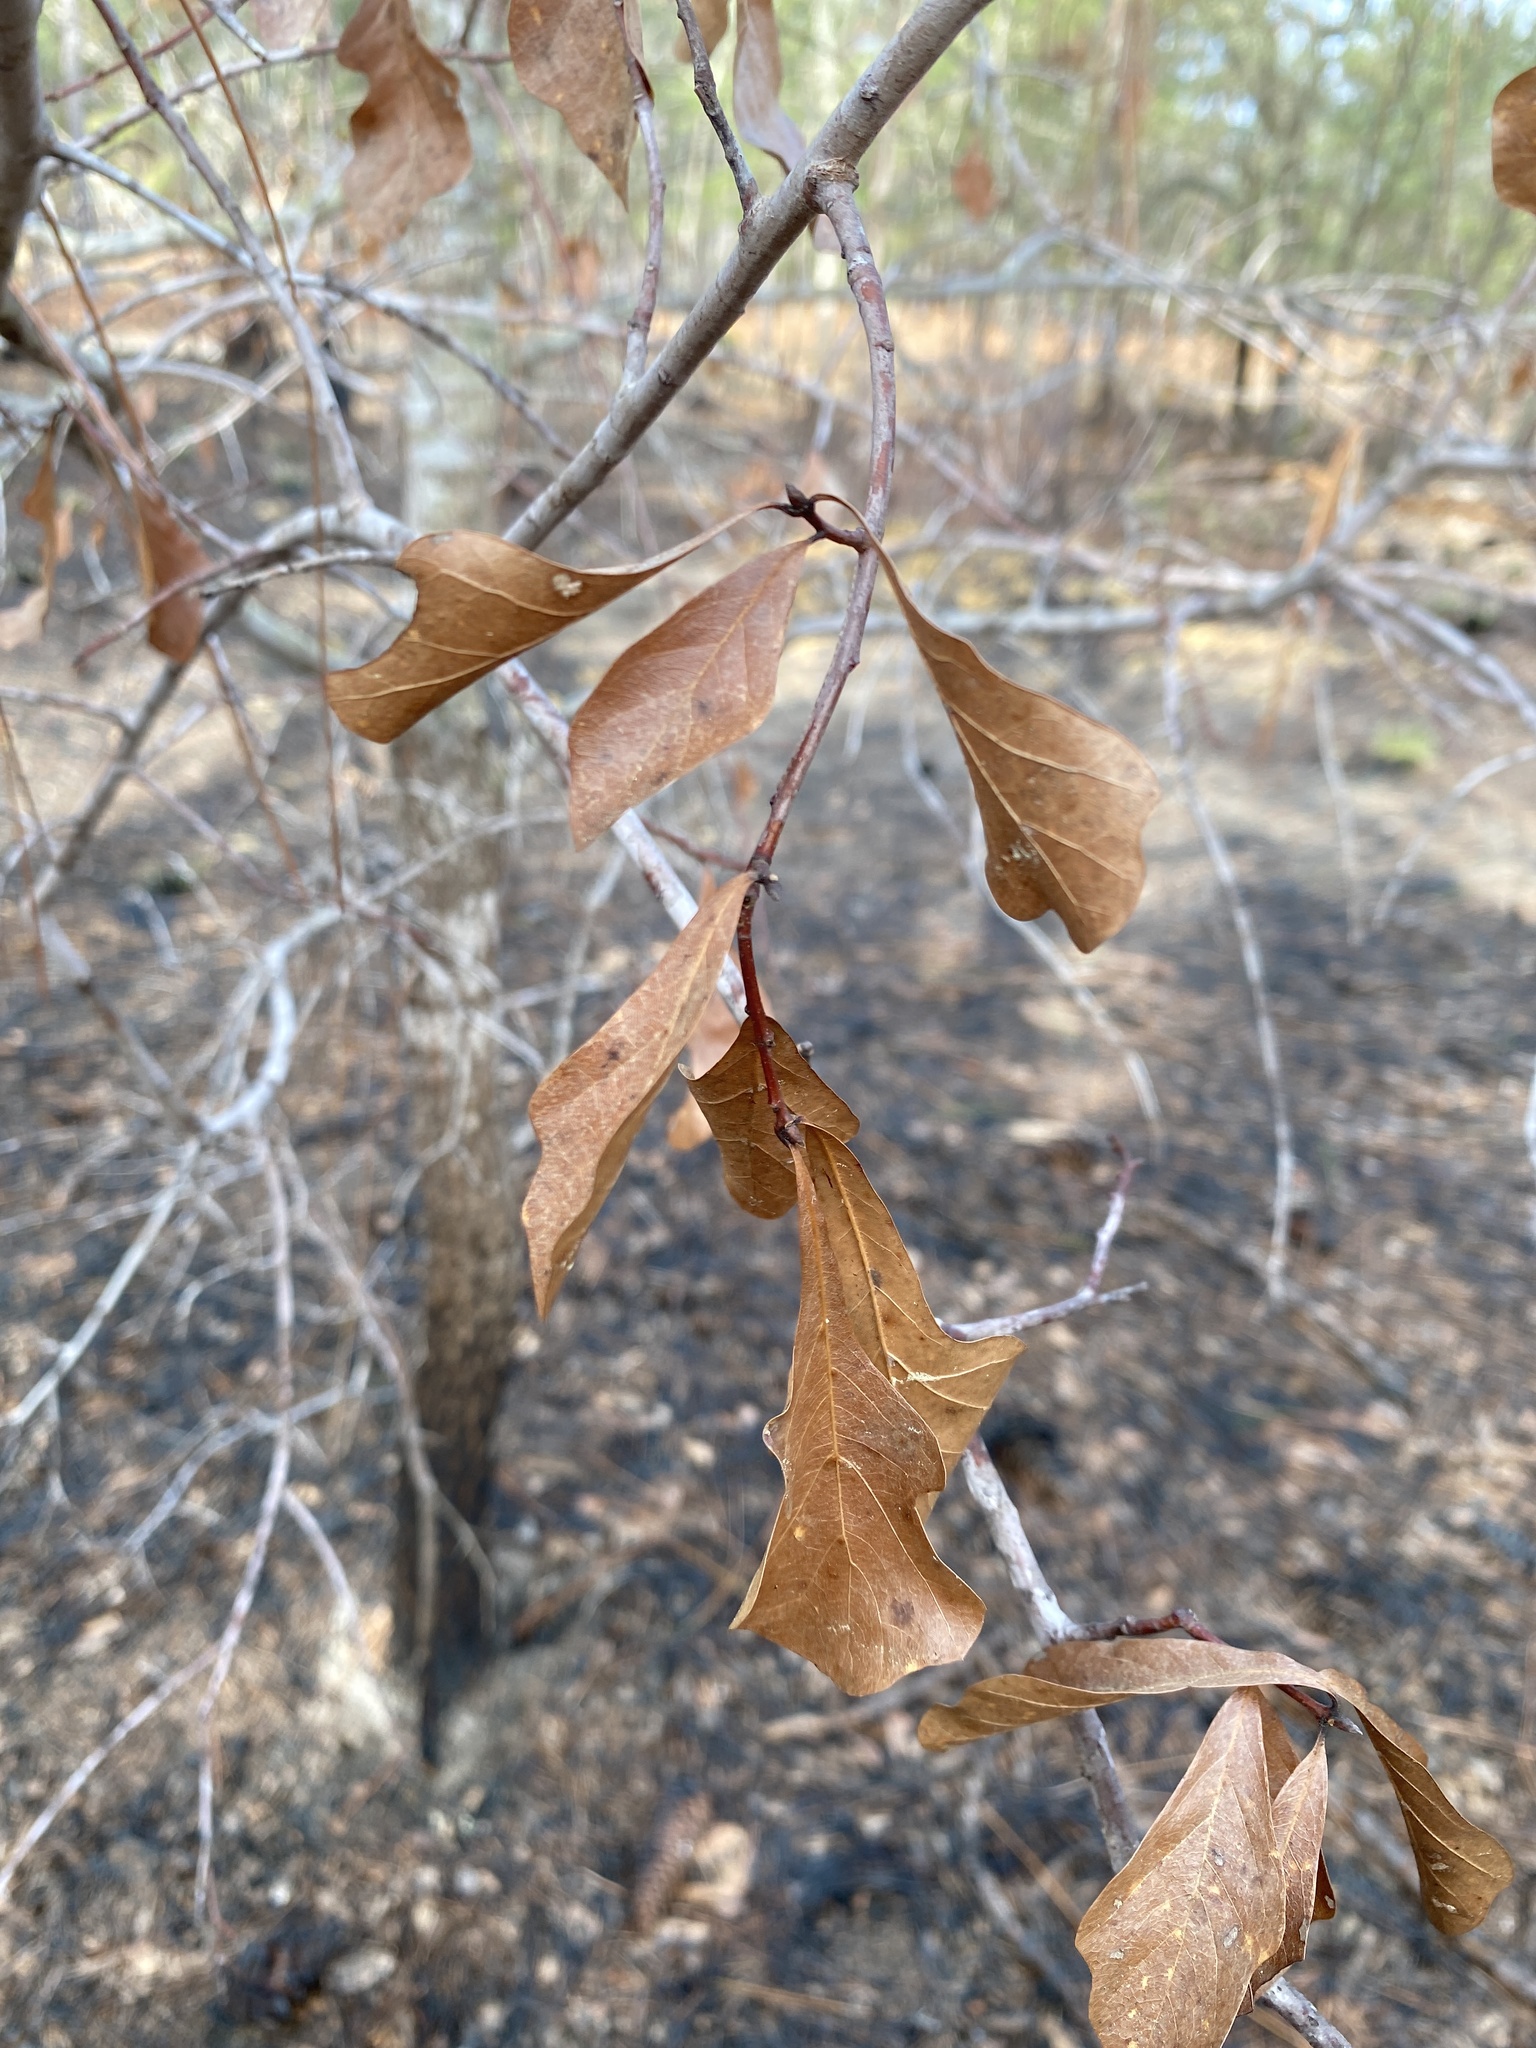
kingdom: Plantae
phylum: Tracheophyta
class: Magnoliopsida
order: Fagales
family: Fagaceae
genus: Quercus
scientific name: Quercus nigra
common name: Water oak
